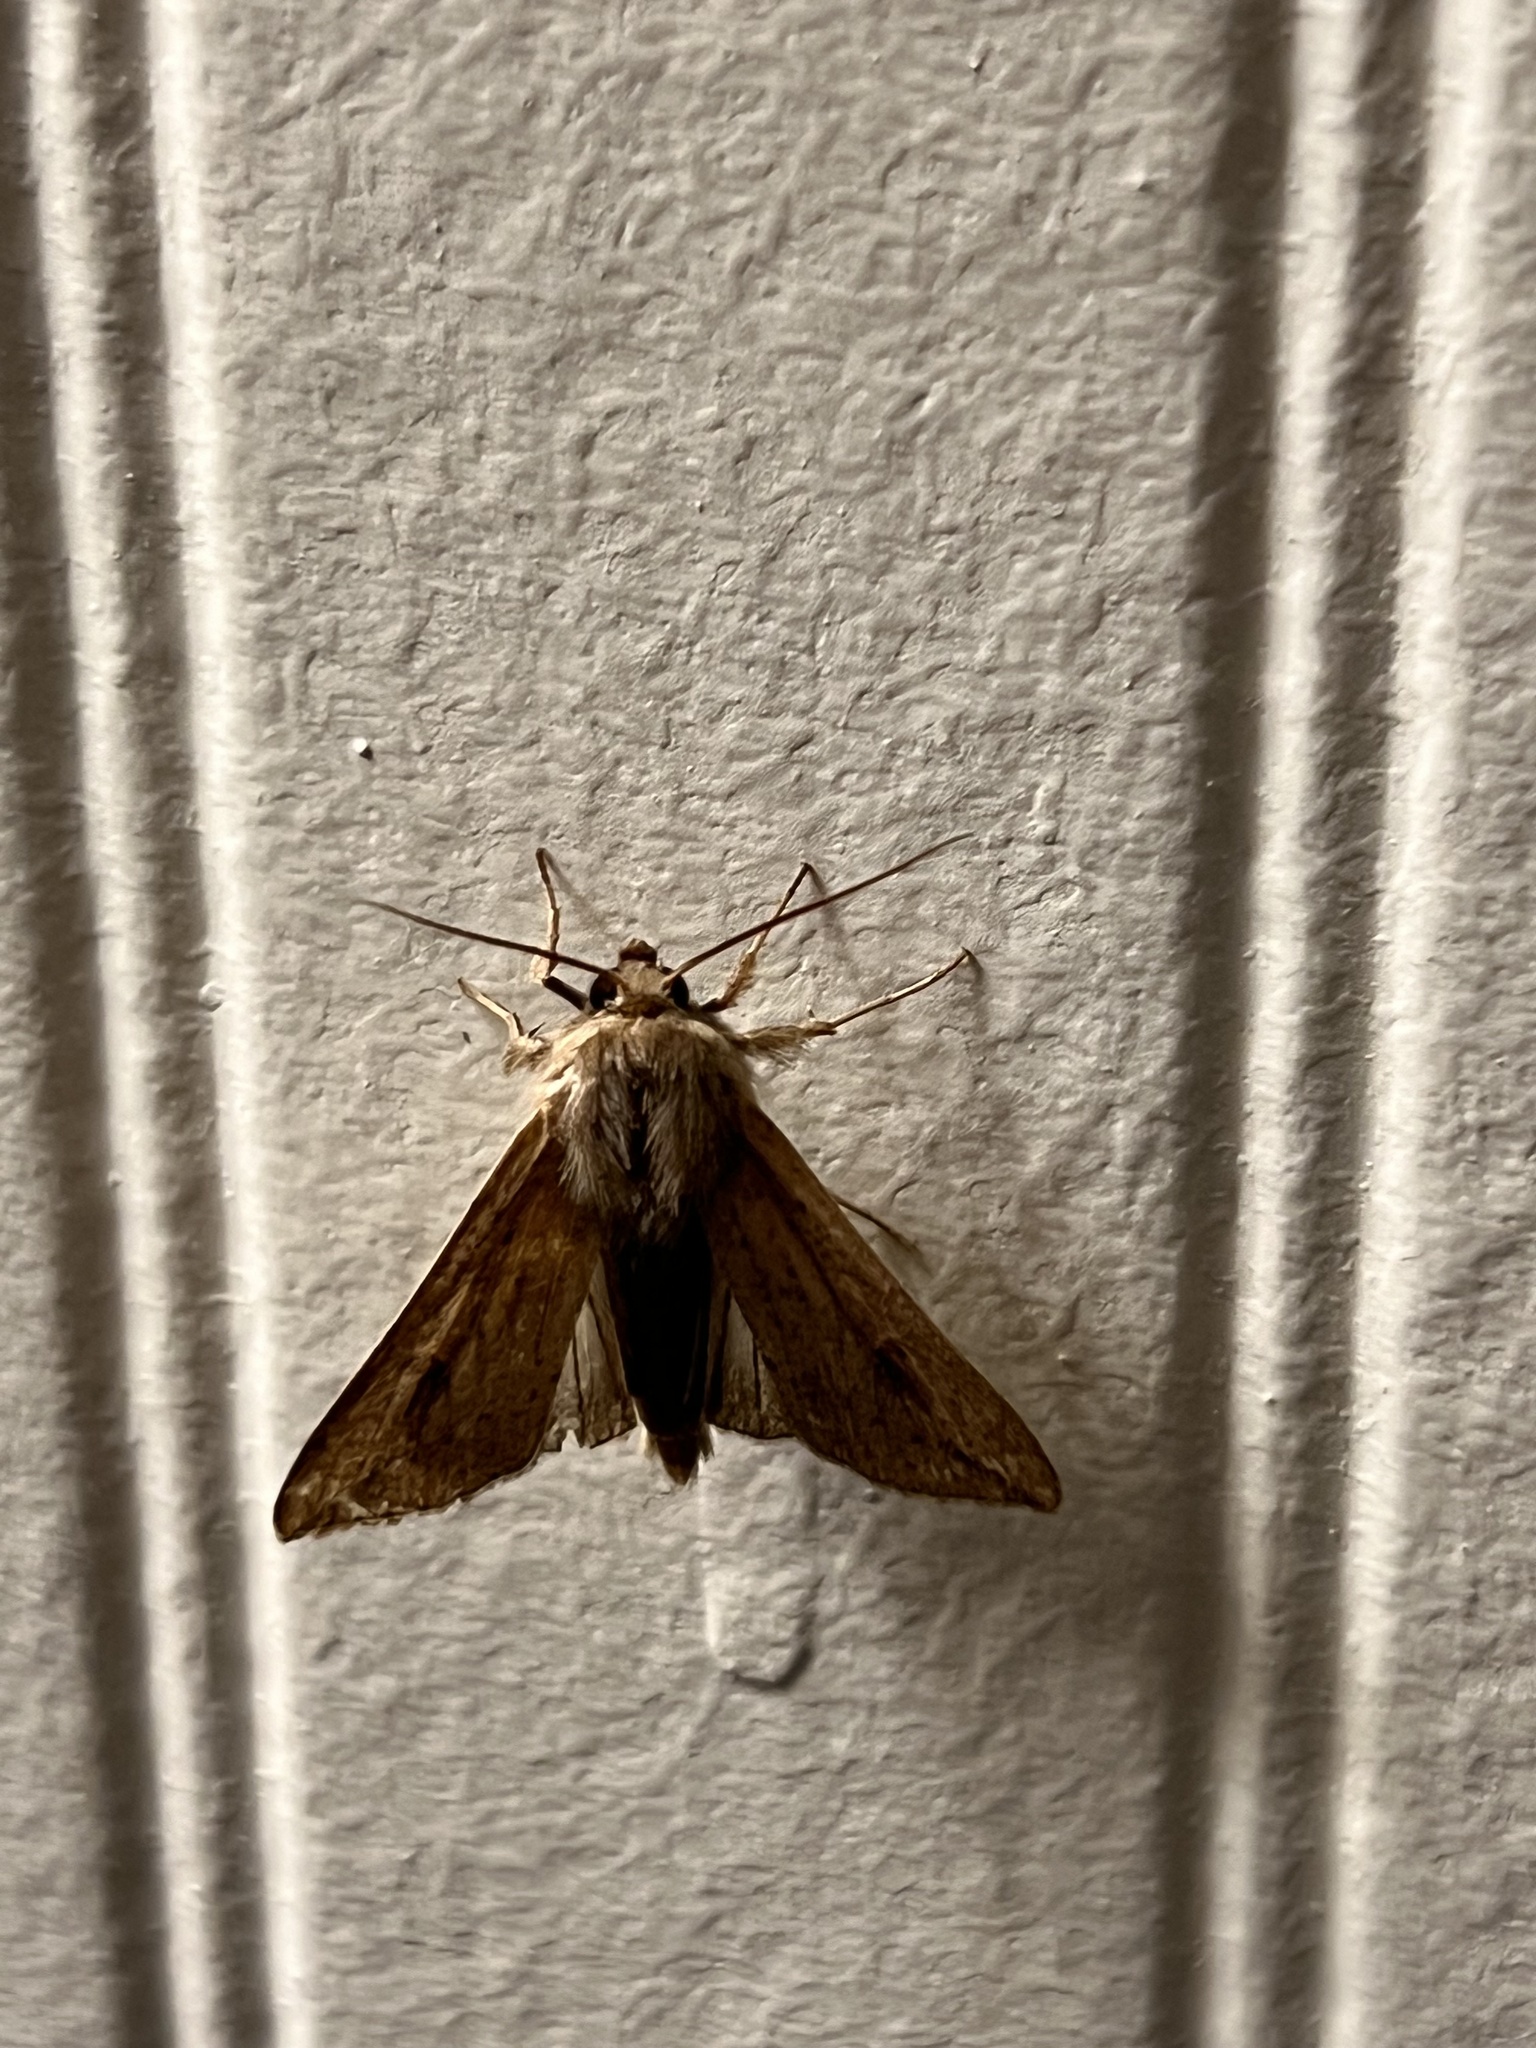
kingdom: Animalia
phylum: Arthropoda
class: Insecta
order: Lepidoptera
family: Noctuidae
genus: Mythimna
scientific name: Mythimna unipuncta
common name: White-speck
